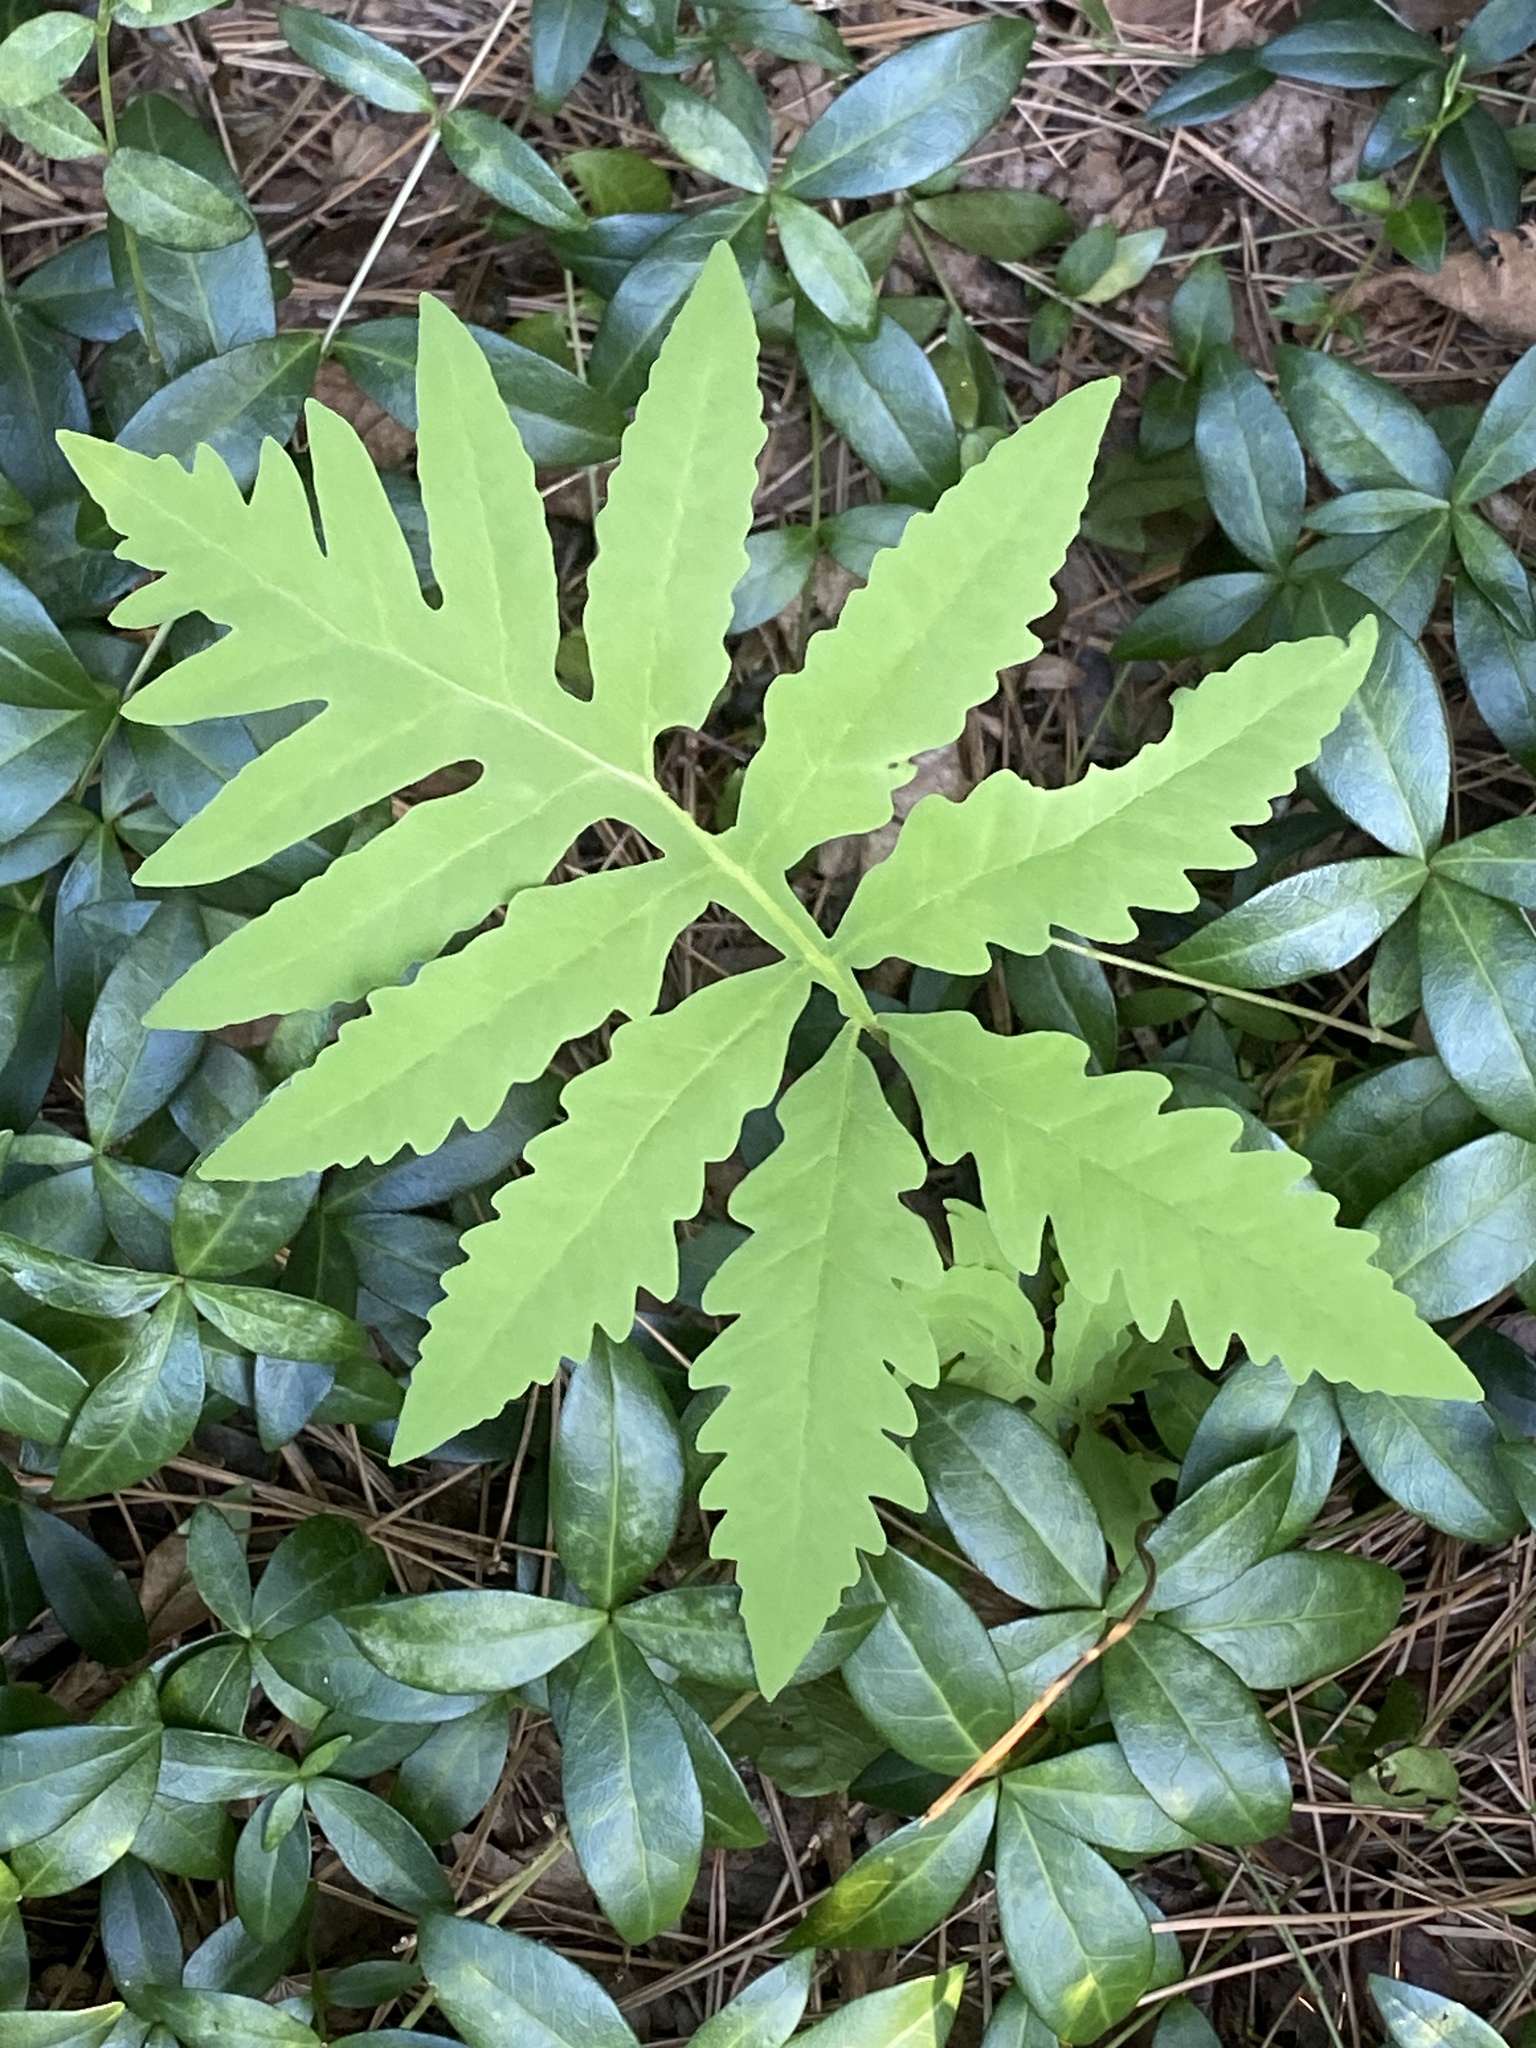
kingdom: Plantae
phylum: Tracheophyta
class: Polypodiopsida
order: Polypodiales
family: Onocleaceae
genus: Onoclea
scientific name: Onoclea sensibilis
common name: Sensitive fern
